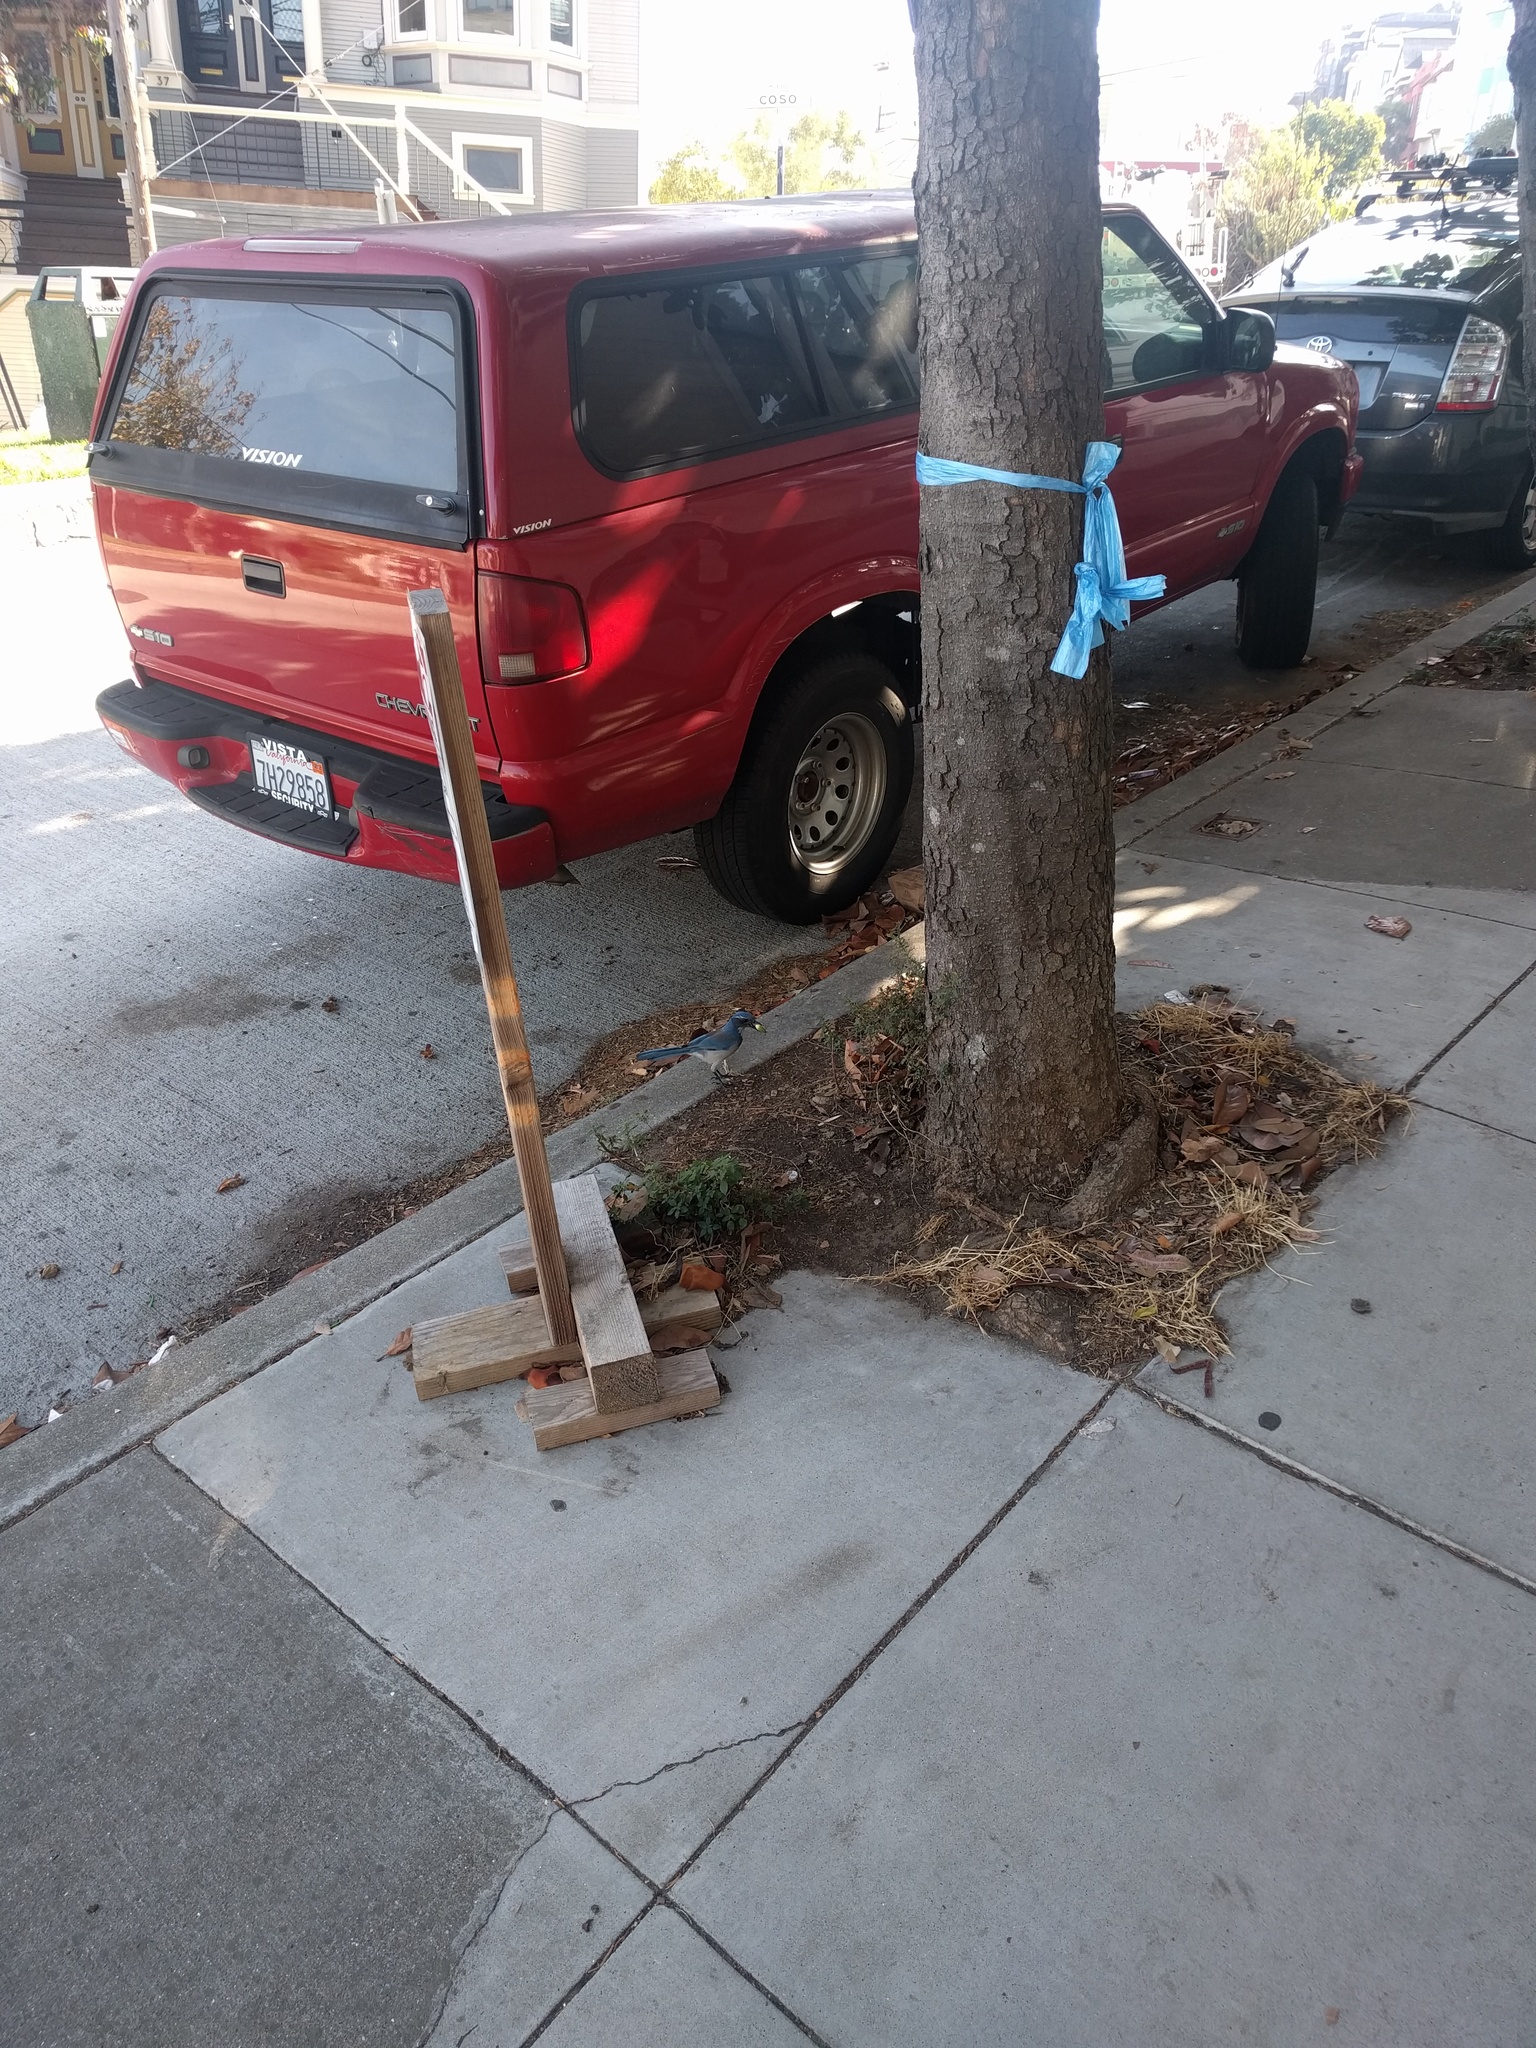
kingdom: Animalia
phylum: Chordata
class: Aves
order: Passeriformes
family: Corvidae
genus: Aphelocoma
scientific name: Aphelocoma californica
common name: California scrub-jay
